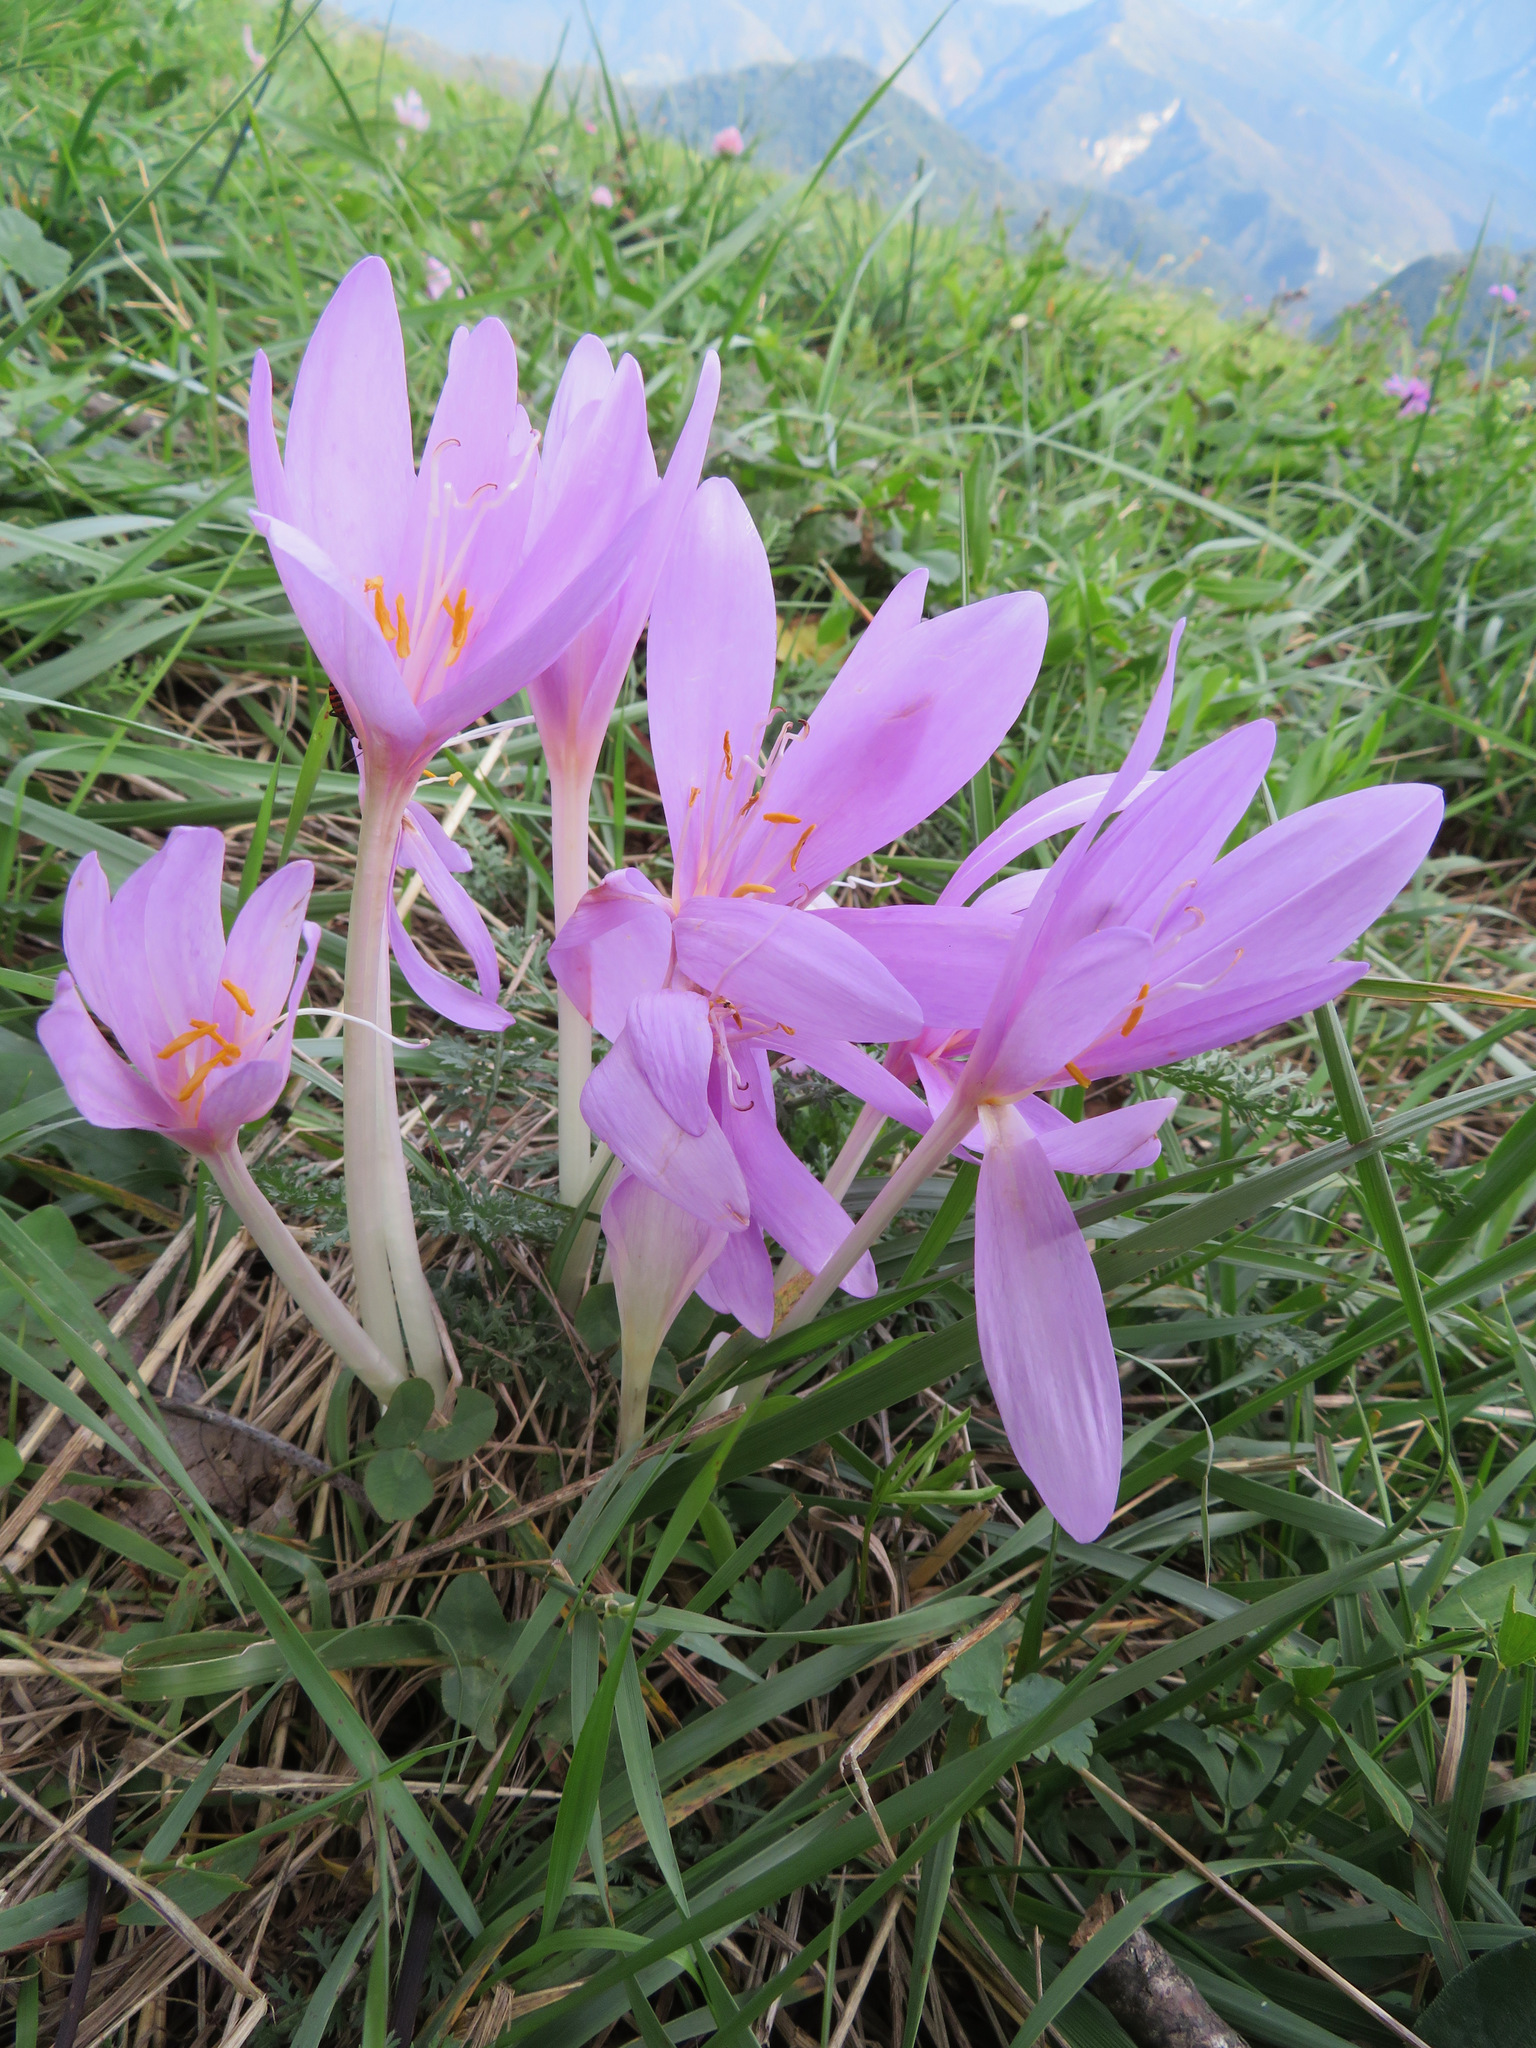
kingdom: Plantae
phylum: Tracheophyta
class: Liliopsida
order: Liliales
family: Colchicaceae
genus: Colchicum
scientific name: Colchicum autumnale
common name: Autumn crocus
